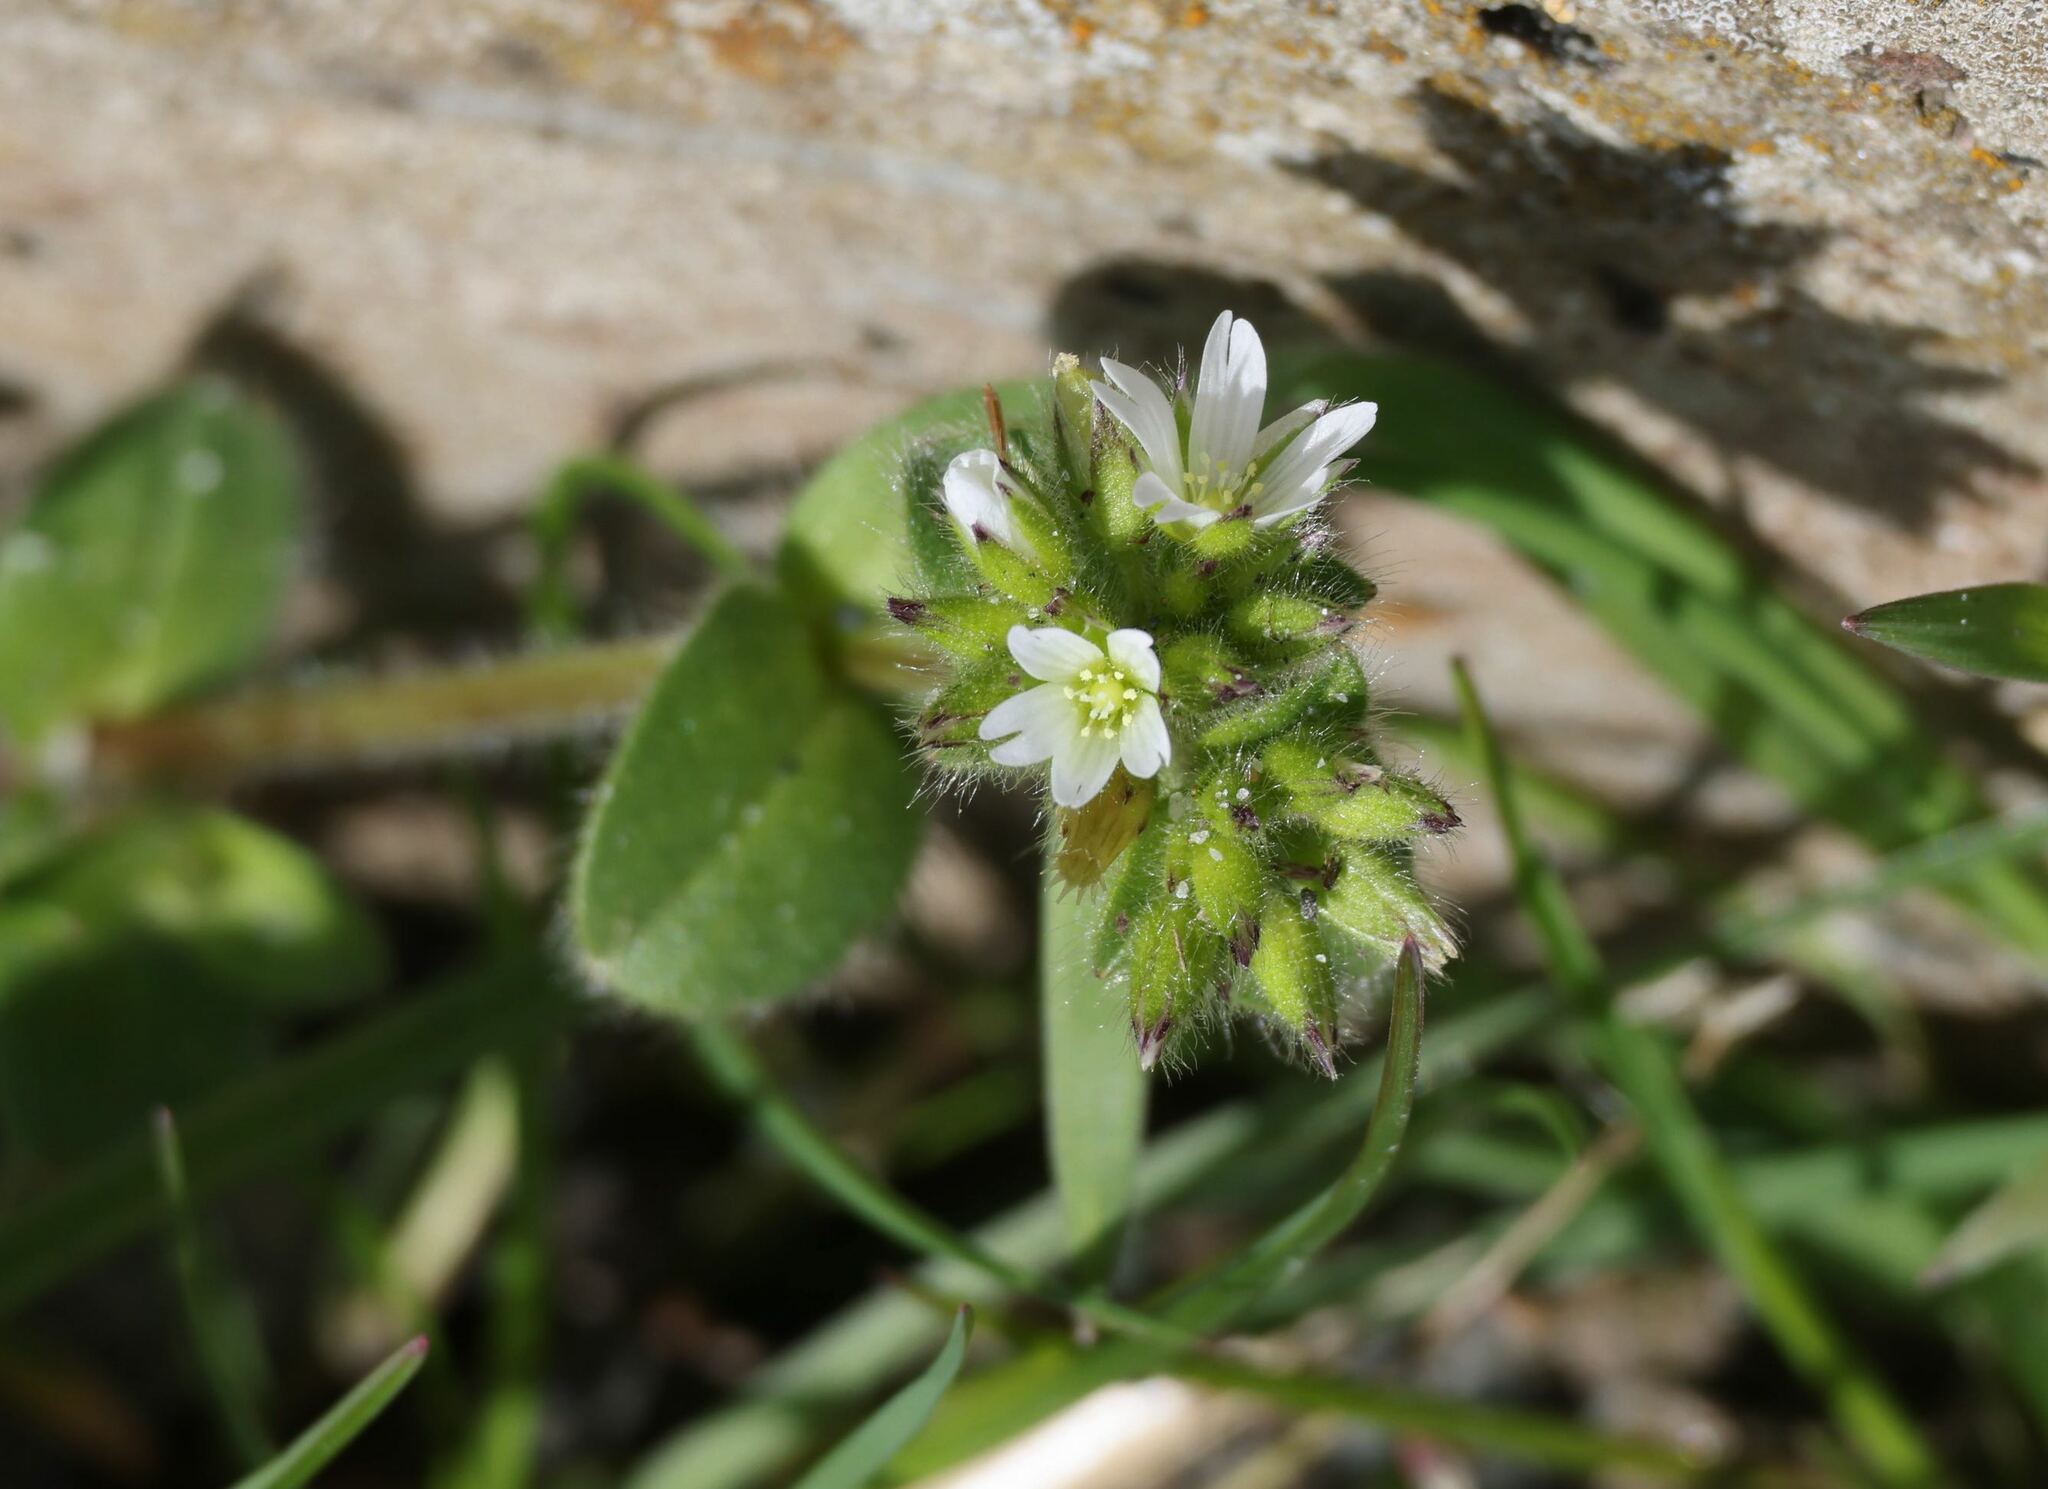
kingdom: Plantae
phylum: Tracheophyta
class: Magnoliopsida
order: Caryophyllales
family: Caryophyllaceae
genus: Cerastium
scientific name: Cerastium glomeratum
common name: Sticky chickweed
